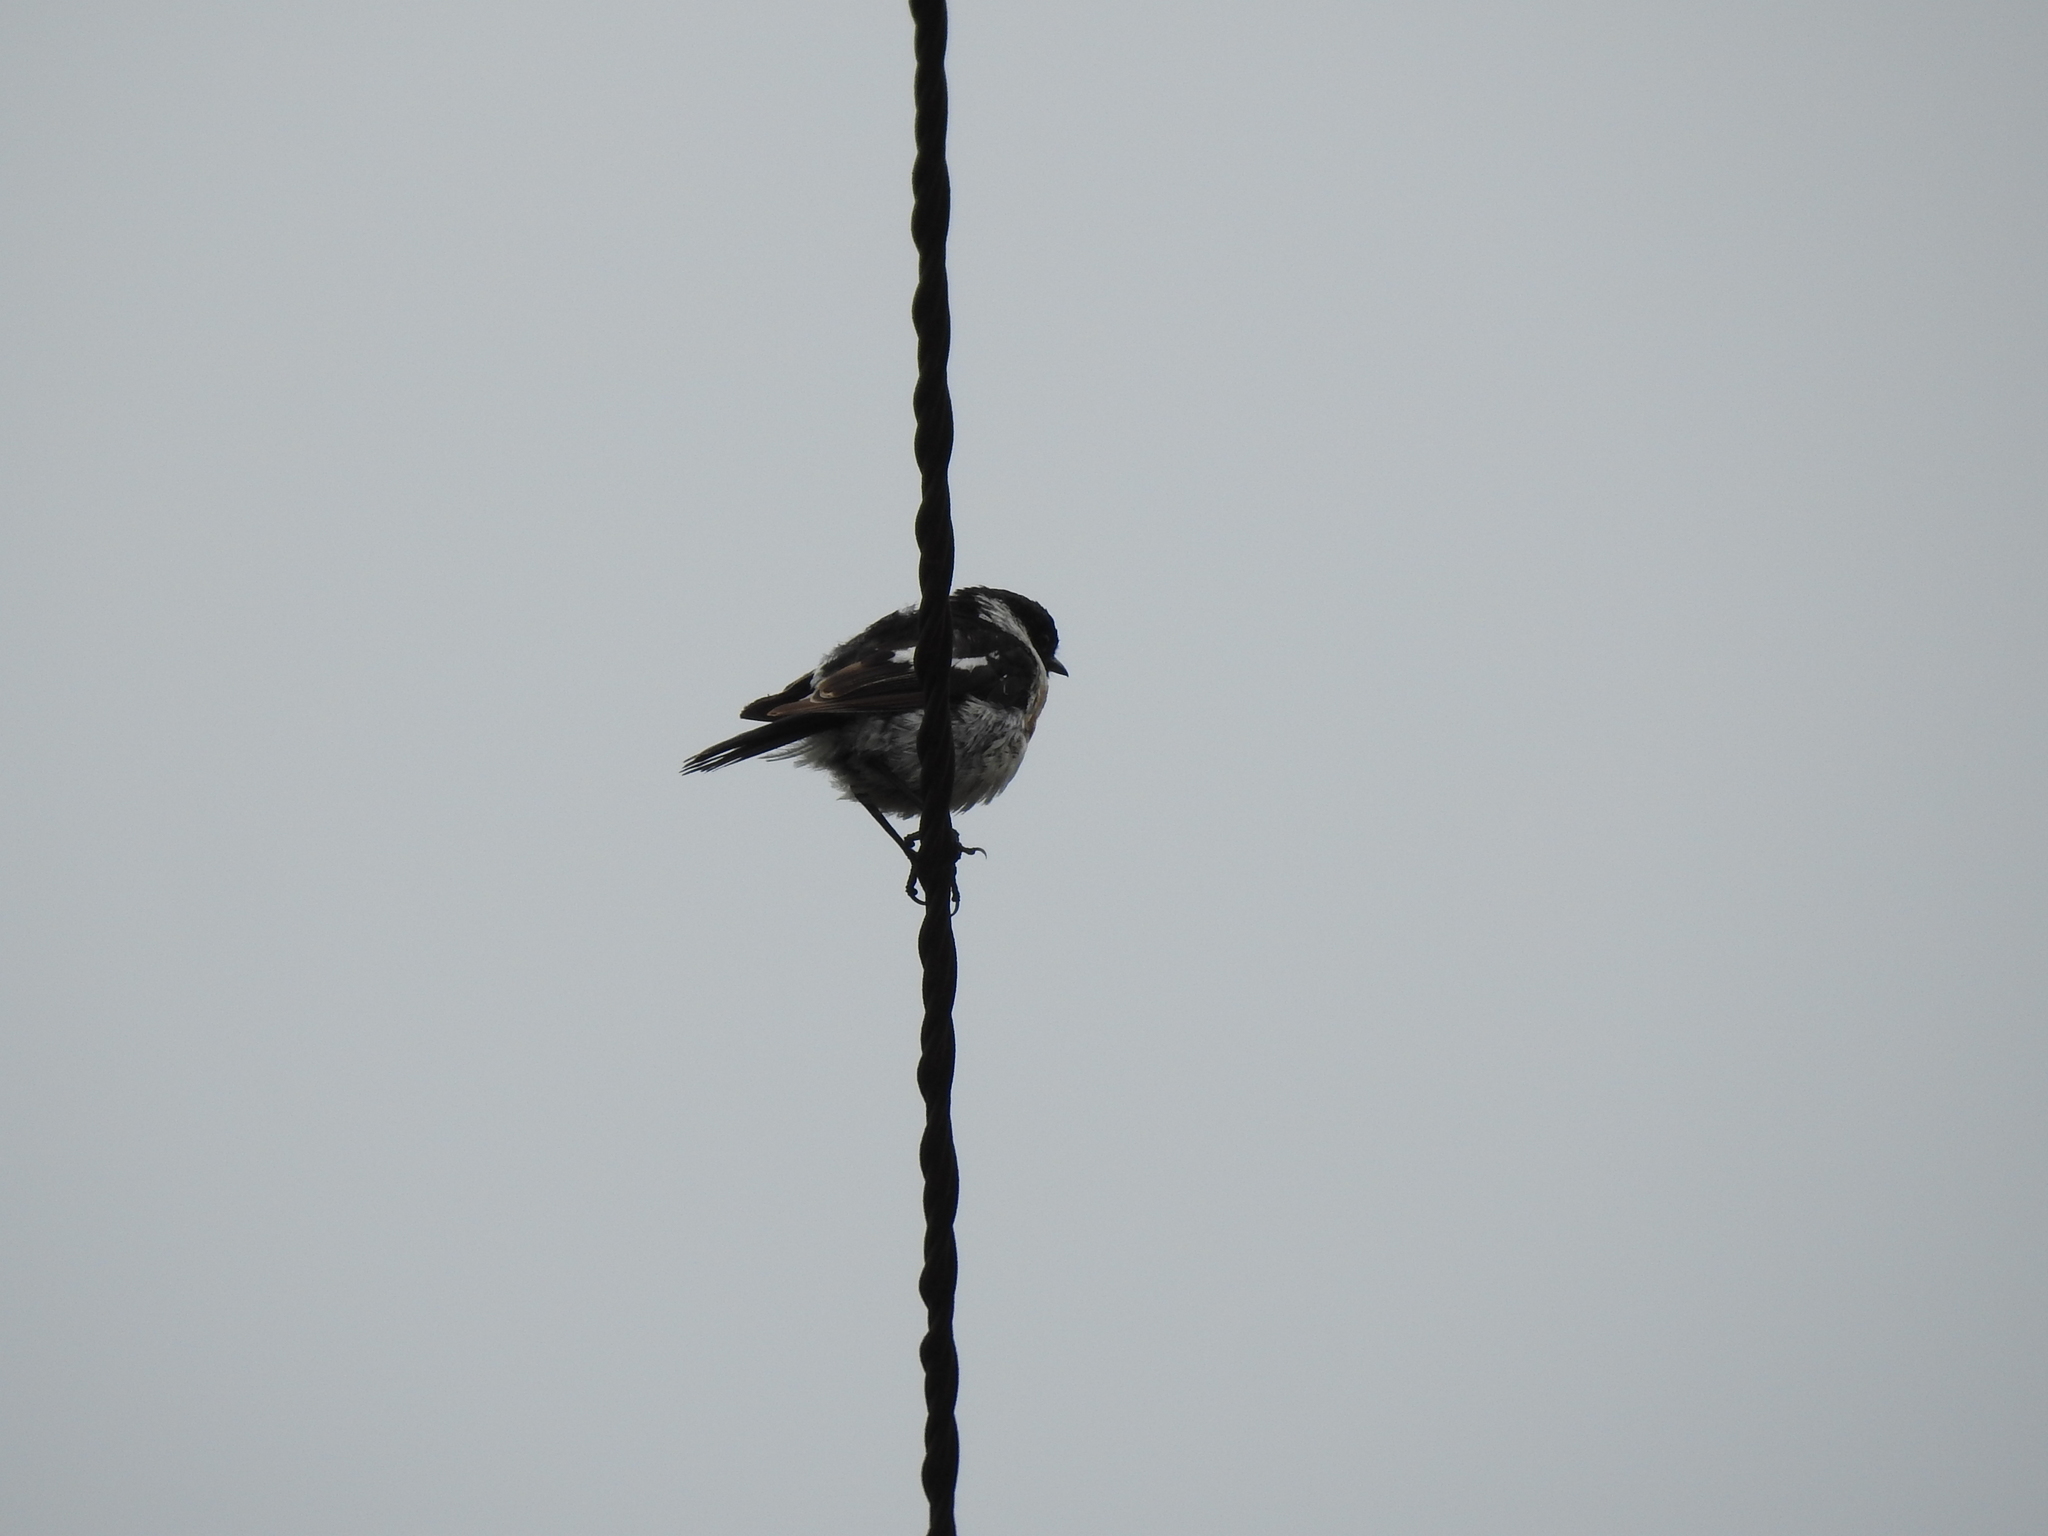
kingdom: Animalia
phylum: Chordata
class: Aves
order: Passeriformes
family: Muscicapidae
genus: Saxicola
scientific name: Saxicola maurus
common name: Siberian stonechat
